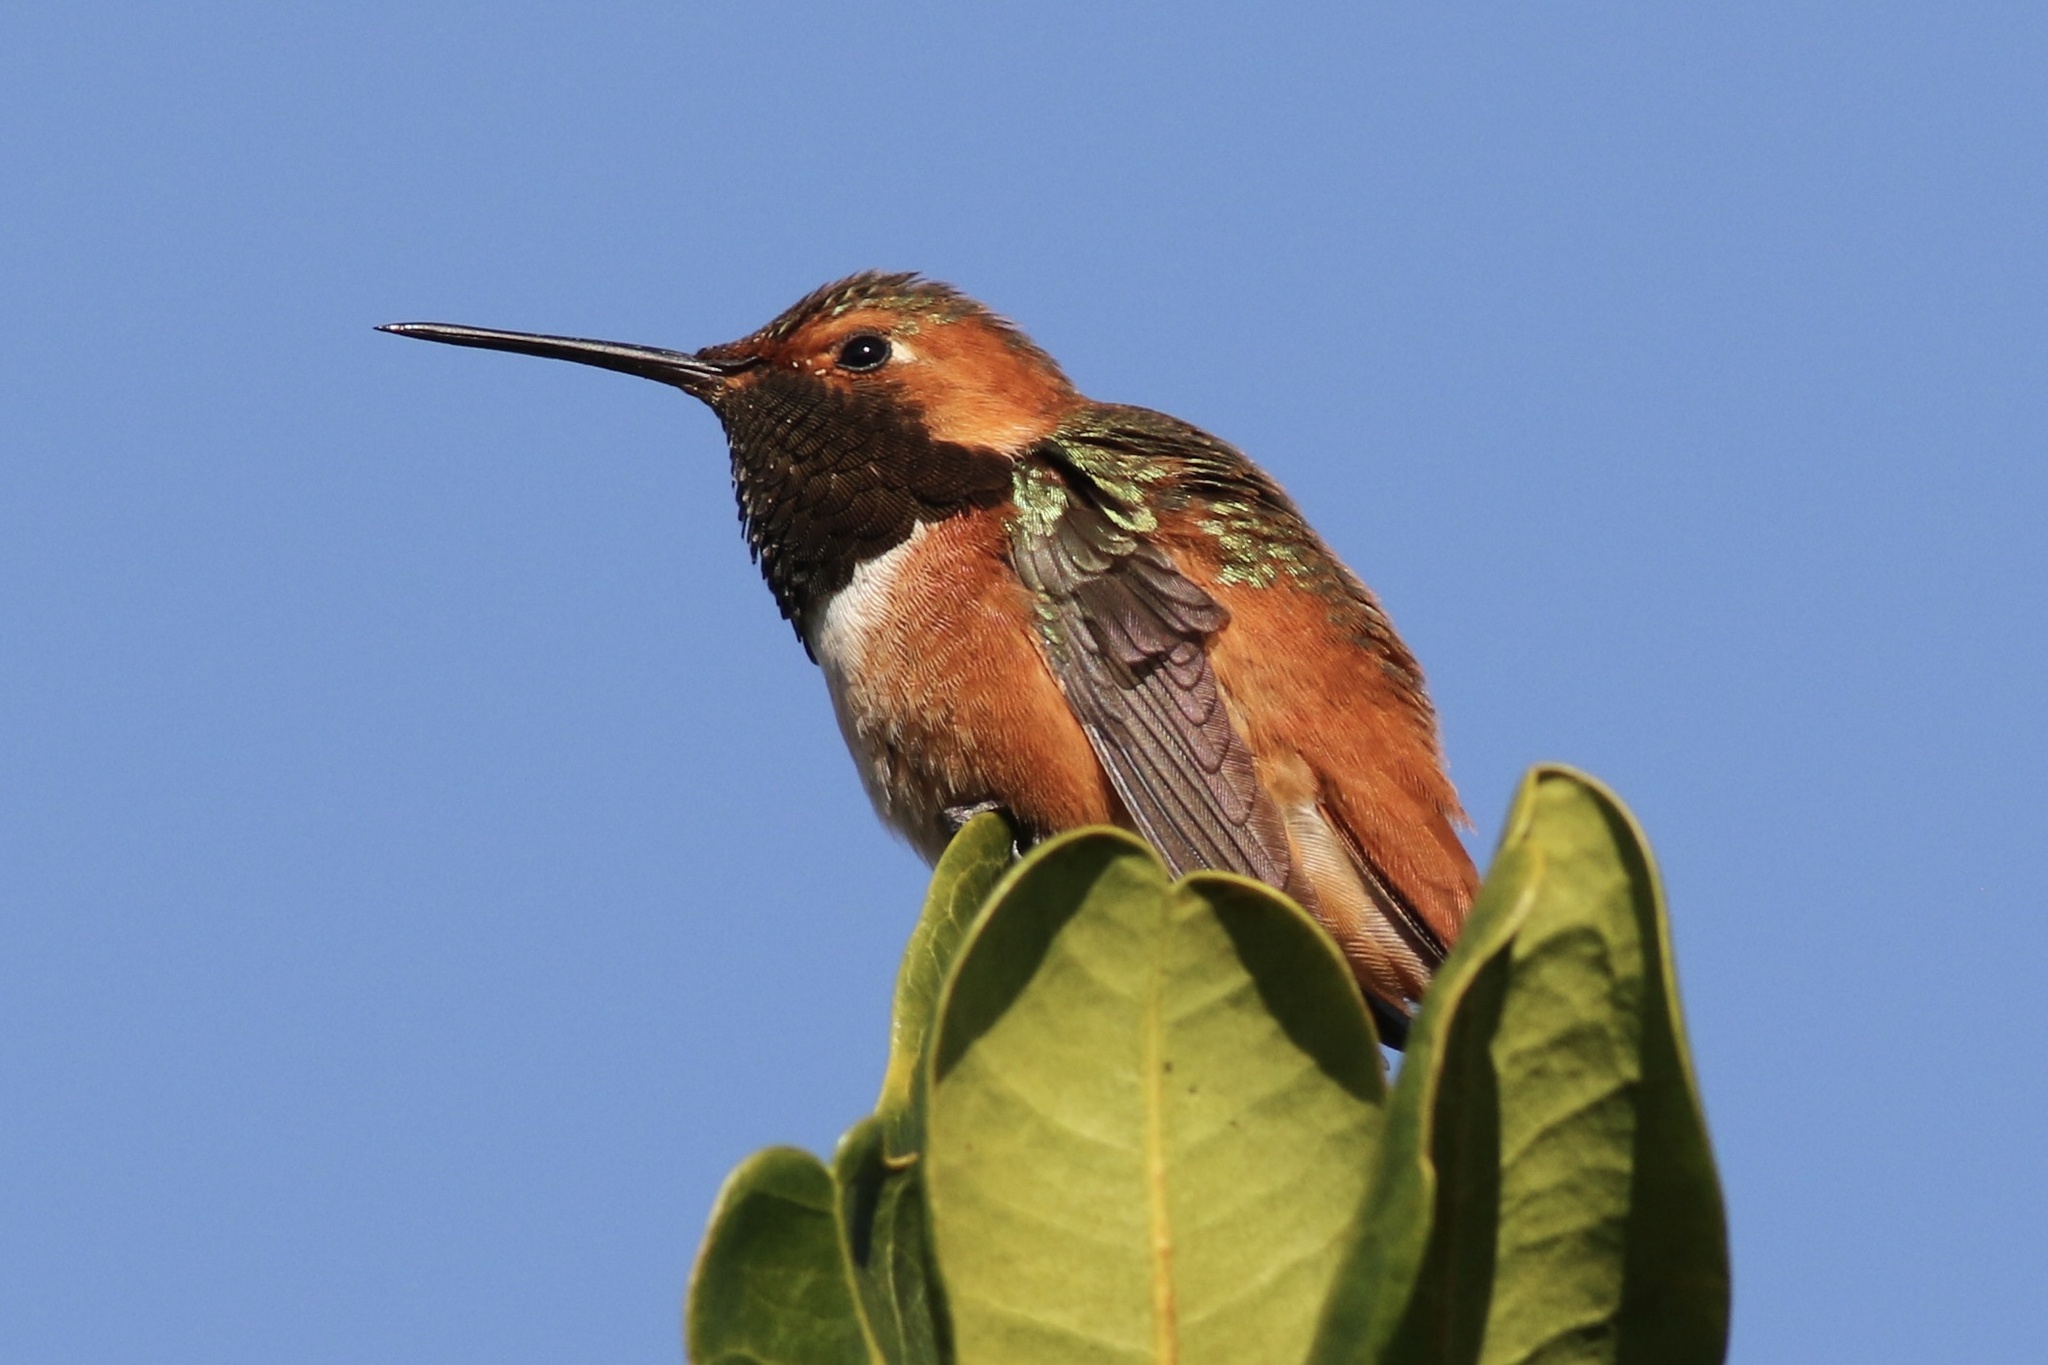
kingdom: Animalia
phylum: Chordata
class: Aves
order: Apodiformes
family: Trochilidae
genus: Selasphorus
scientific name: Selasphorus sasin
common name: Allen's hummingbird
